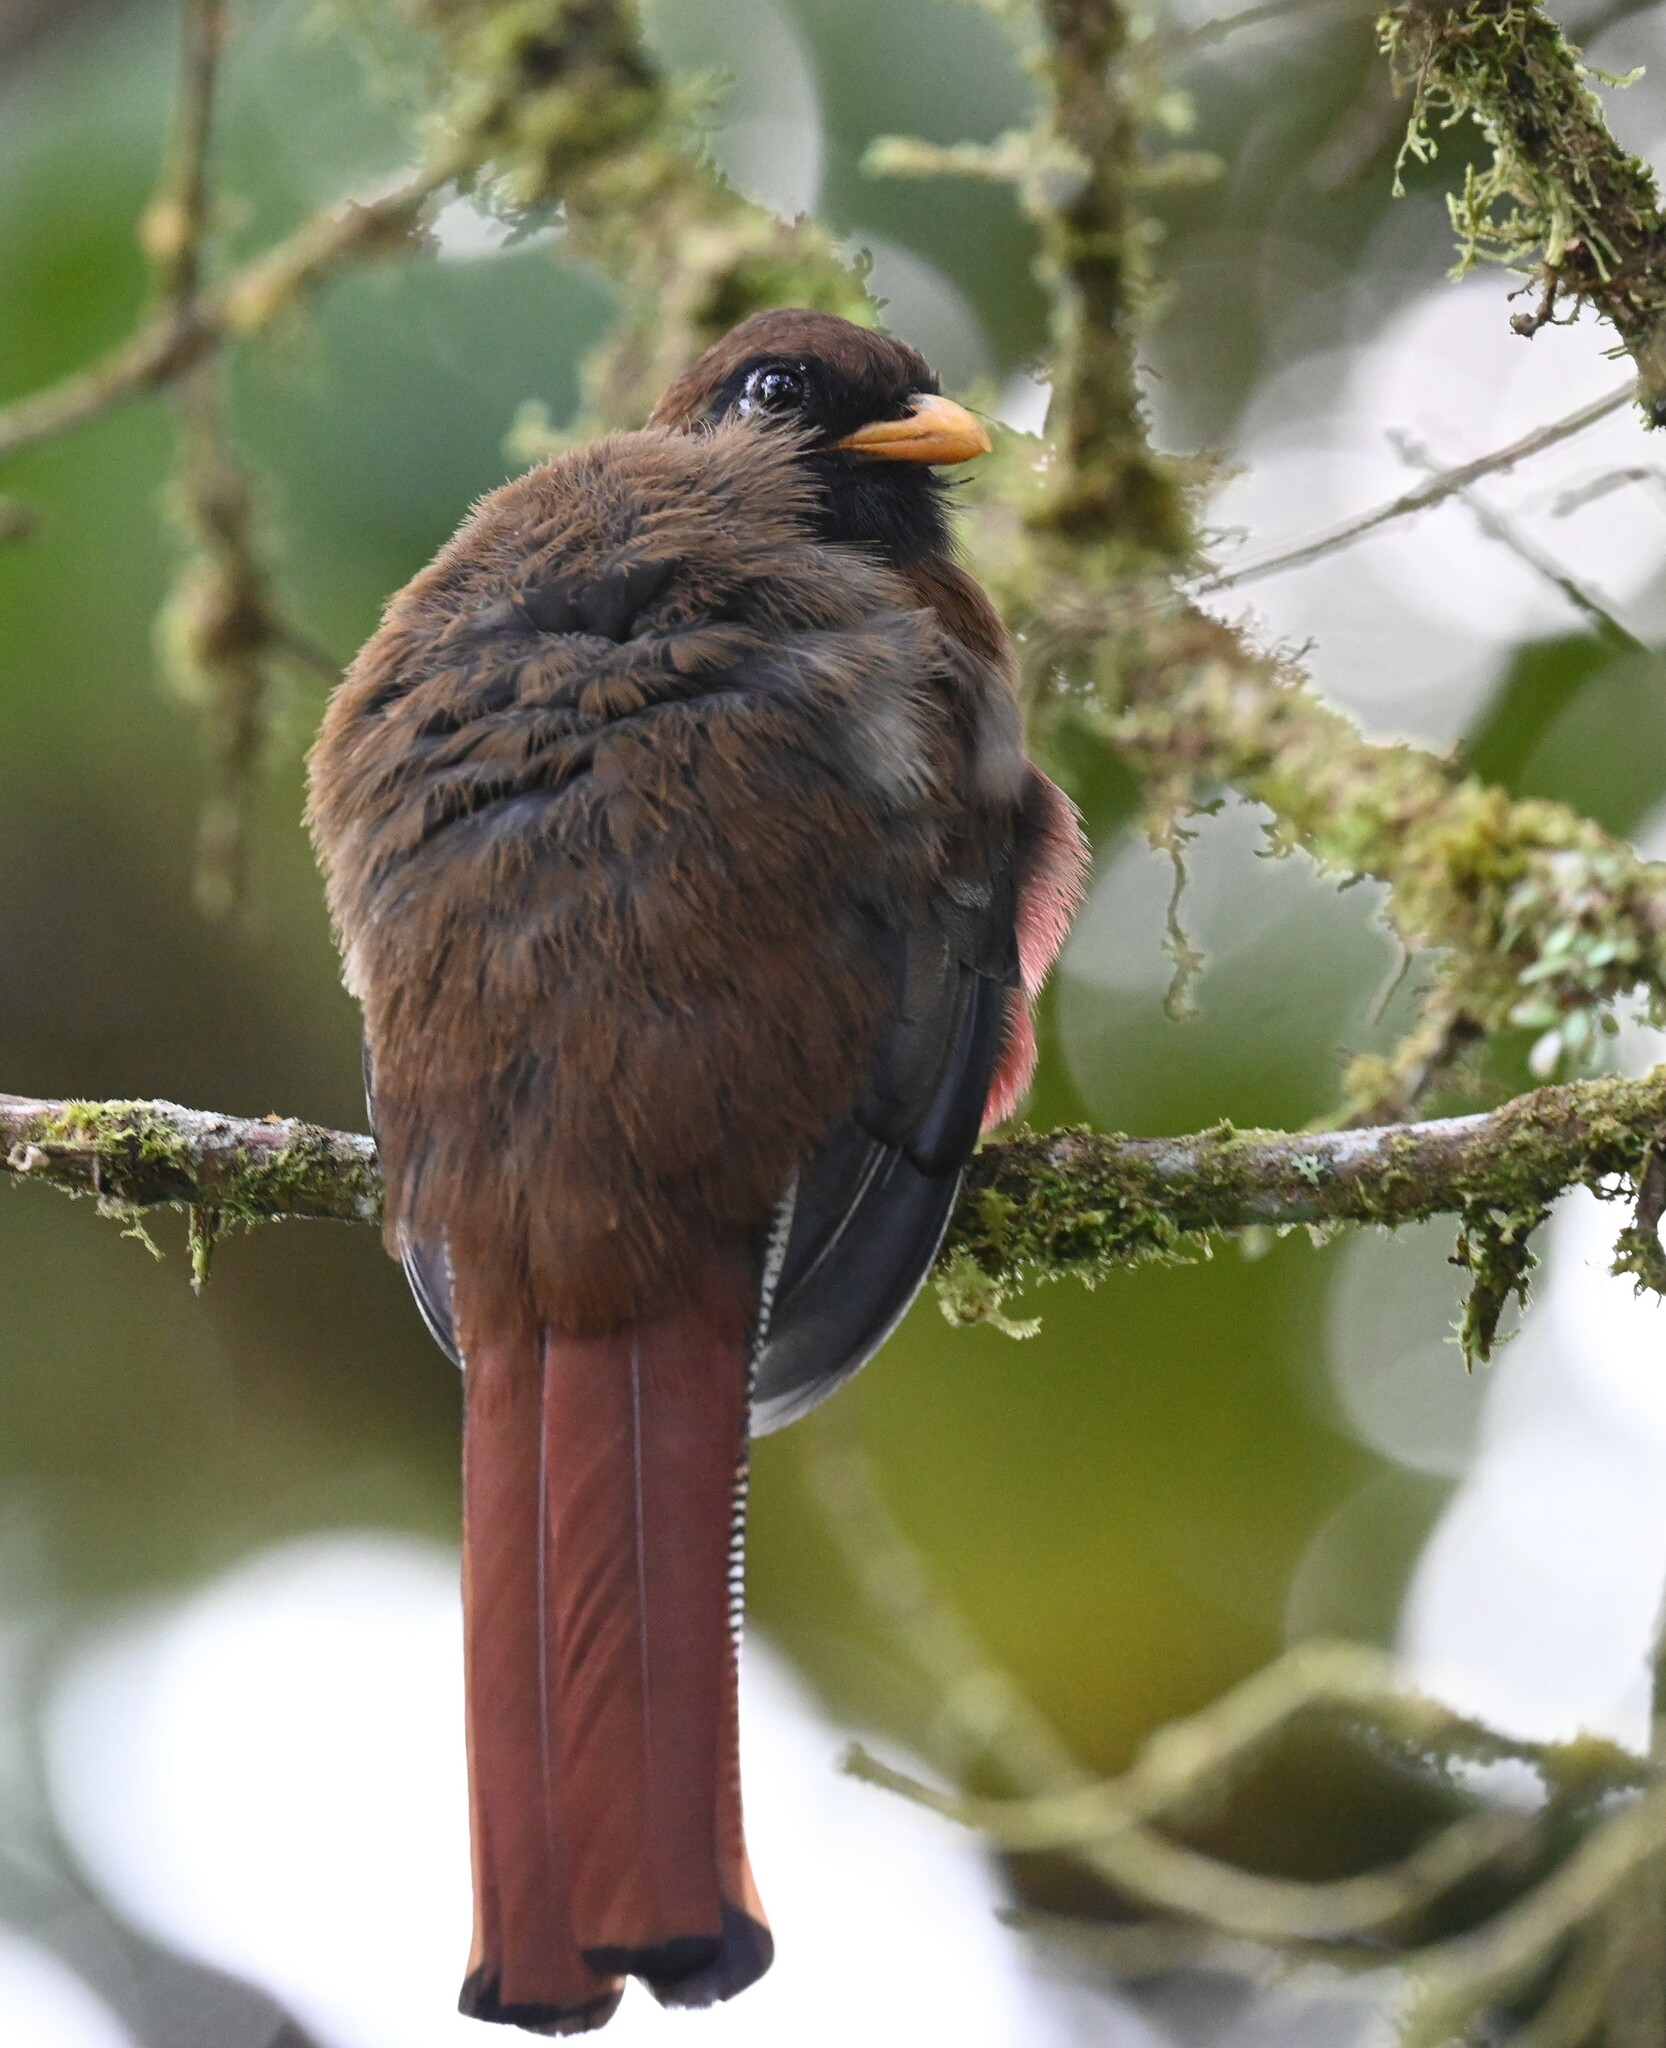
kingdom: Animalia
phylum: Chordata
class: Aves
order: Trogoniformes
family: Trogonidae
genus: Trogon
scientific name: Trogon personatus
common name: Masked trogon
